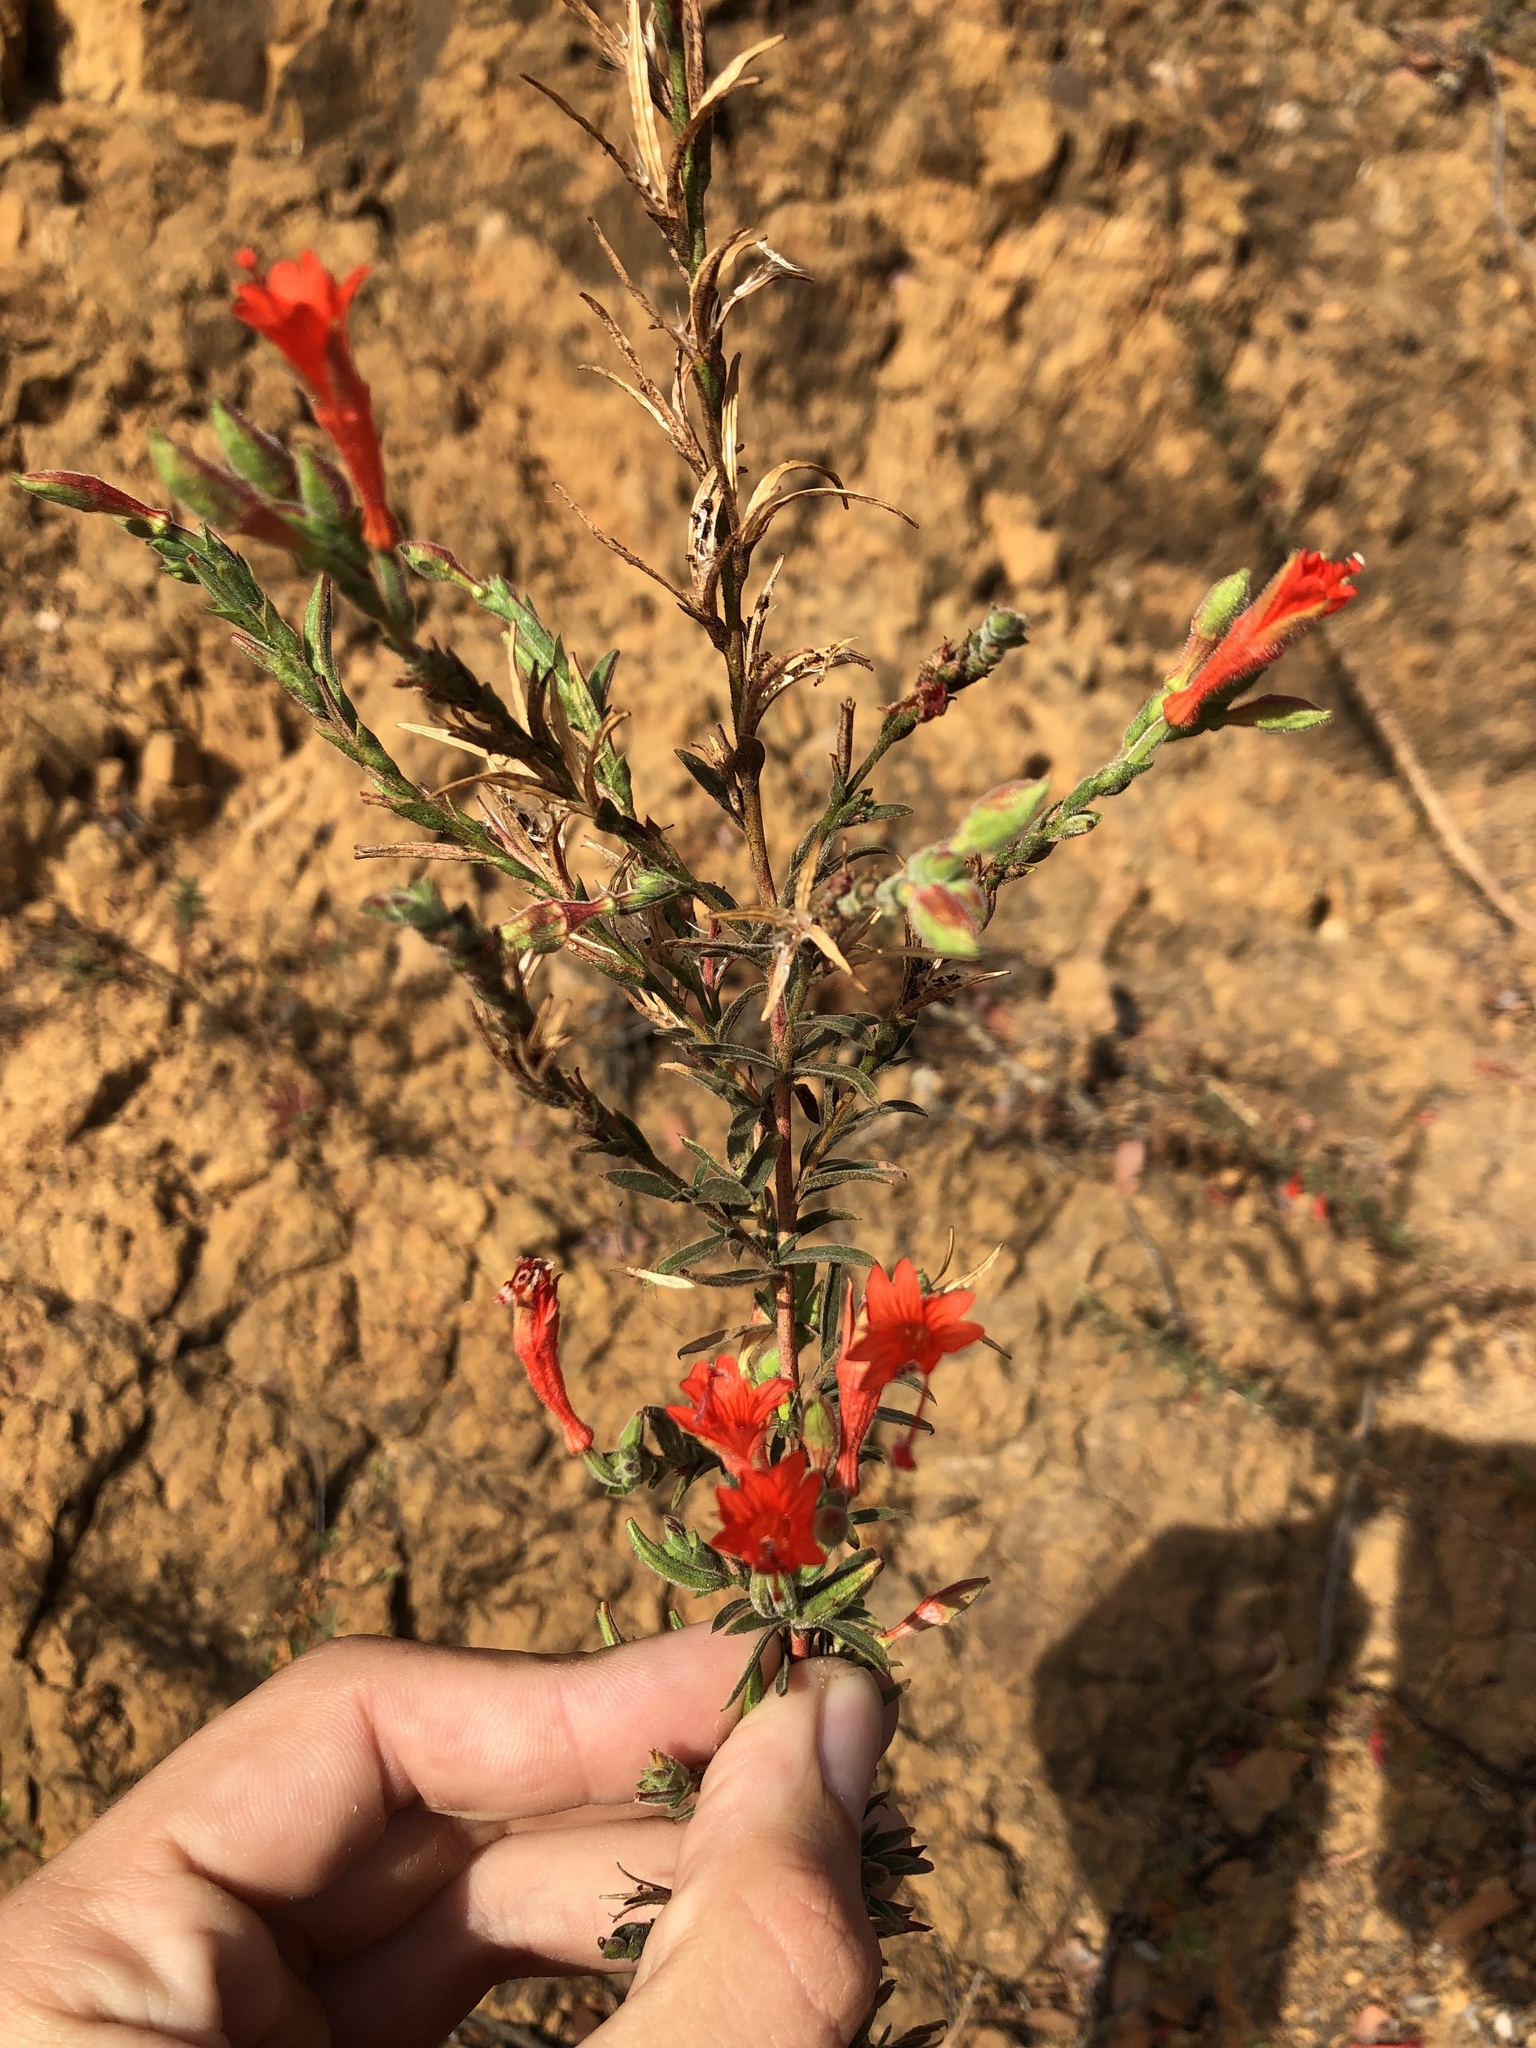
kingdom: Plantae
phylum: Tracheophyta
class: Magnoliopsida
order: Myrtales
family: Onagraceae
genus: Epilobium
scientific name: Epilobium canum
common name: California-fuchsia
